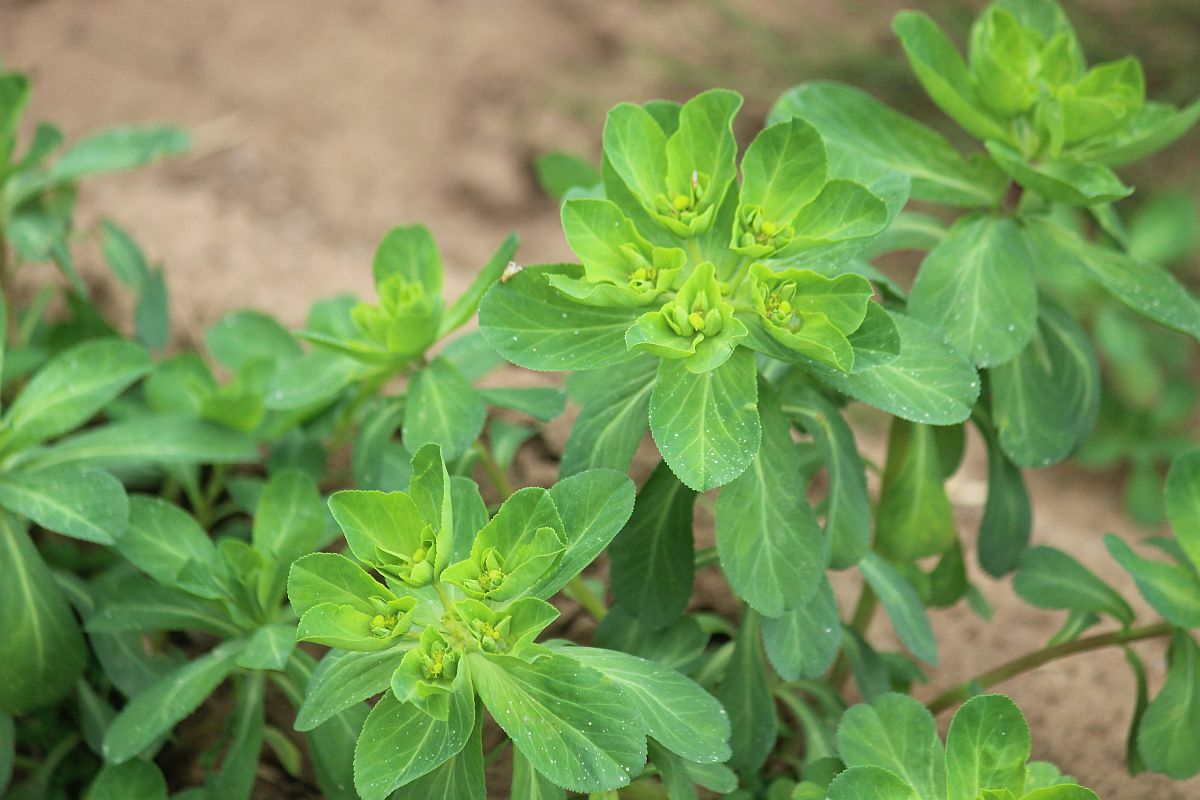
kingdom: Plantae
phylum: Tracheophyta
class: Magnoliopsida
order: Malpighiales
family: Euphorbiaceae
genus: Euphorbia
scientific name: Euphorbia helioscopia
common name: Sun spurge
